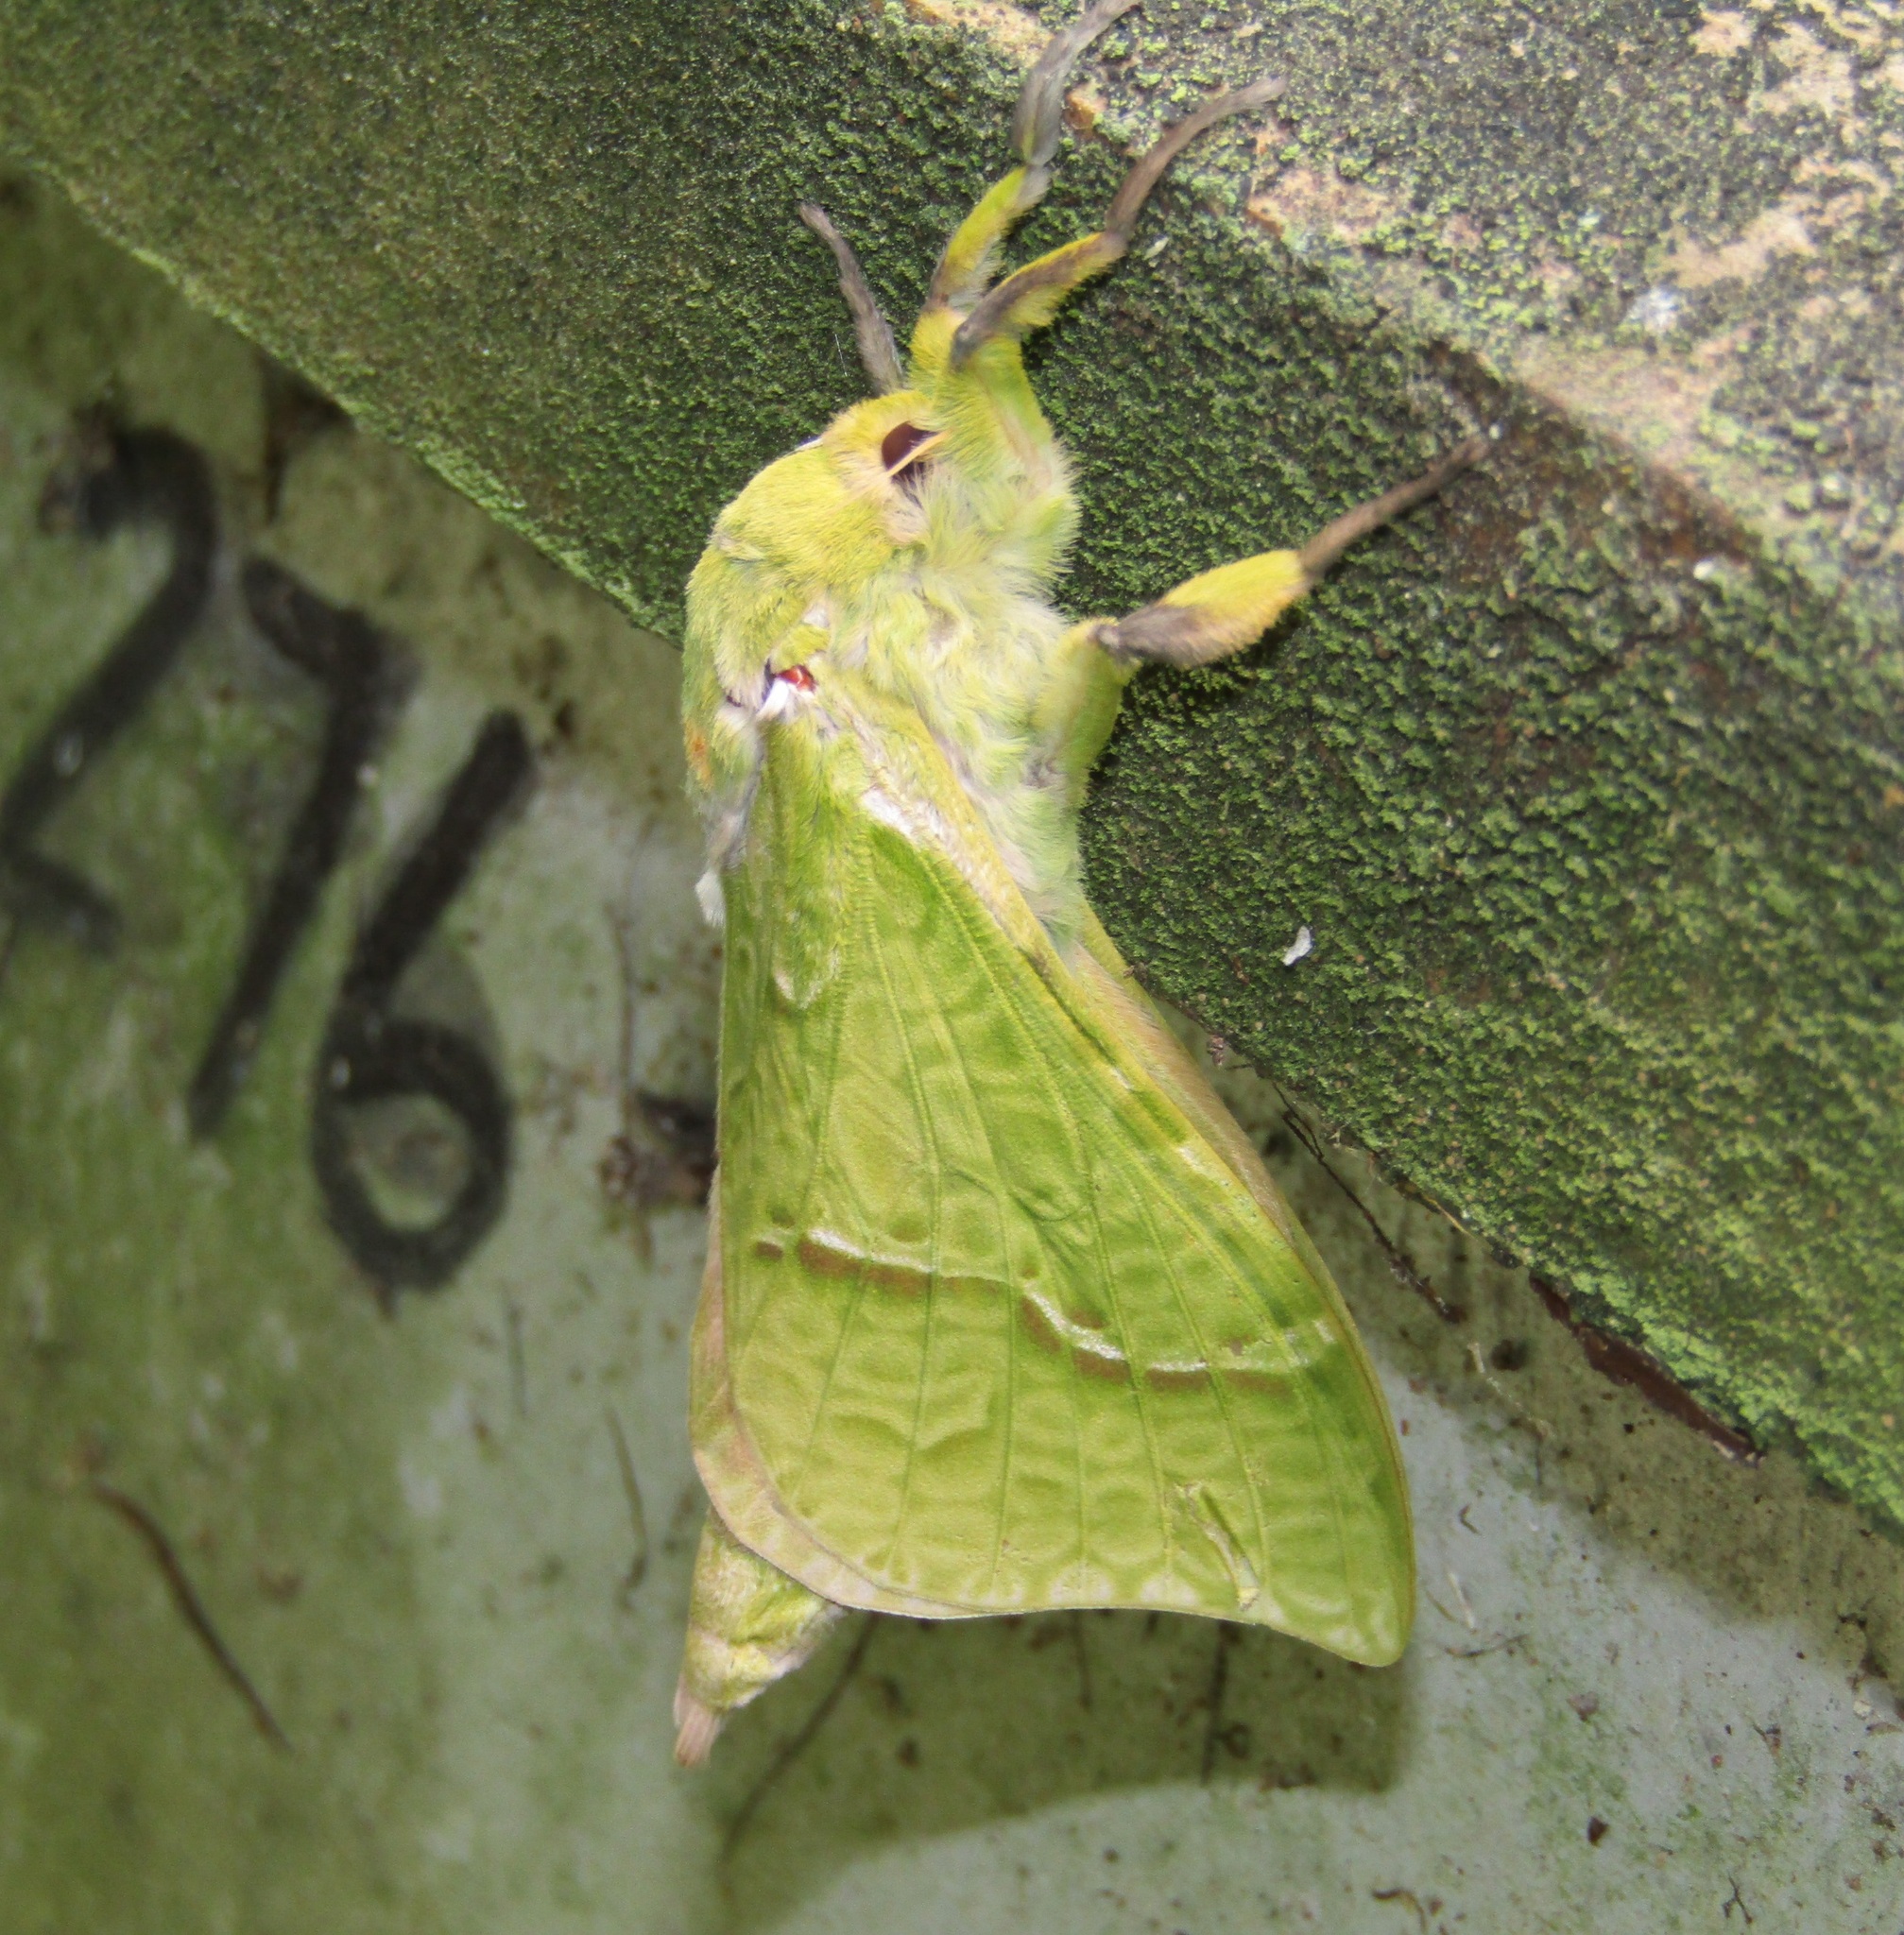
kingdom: Animalia
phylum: Arthropoda
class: Insecta
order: Lepidoptera
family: Hepialidae
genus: Aenetus
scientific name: Aenetus virescens
